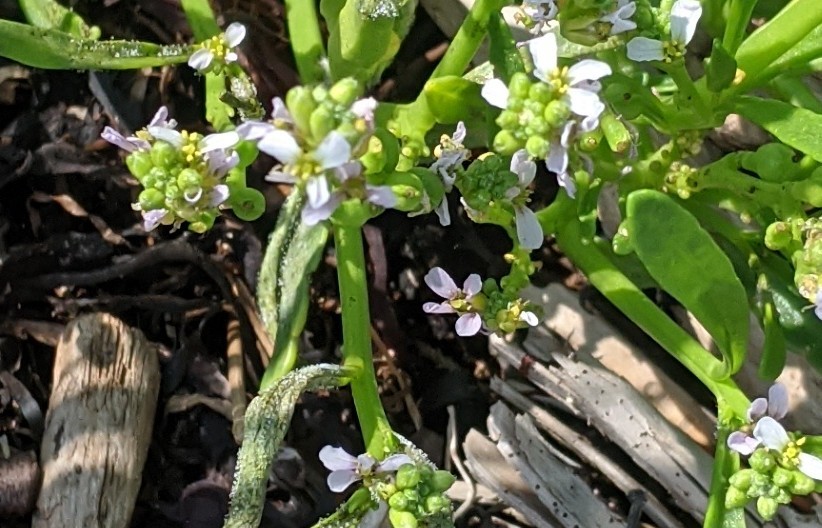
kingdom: Plantae
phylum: Tracheophyta
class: Magnoliopsida
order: Brassicales
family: Brassicaceae
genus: Cakile
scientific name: Cakile edentula
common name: American sea rocket
